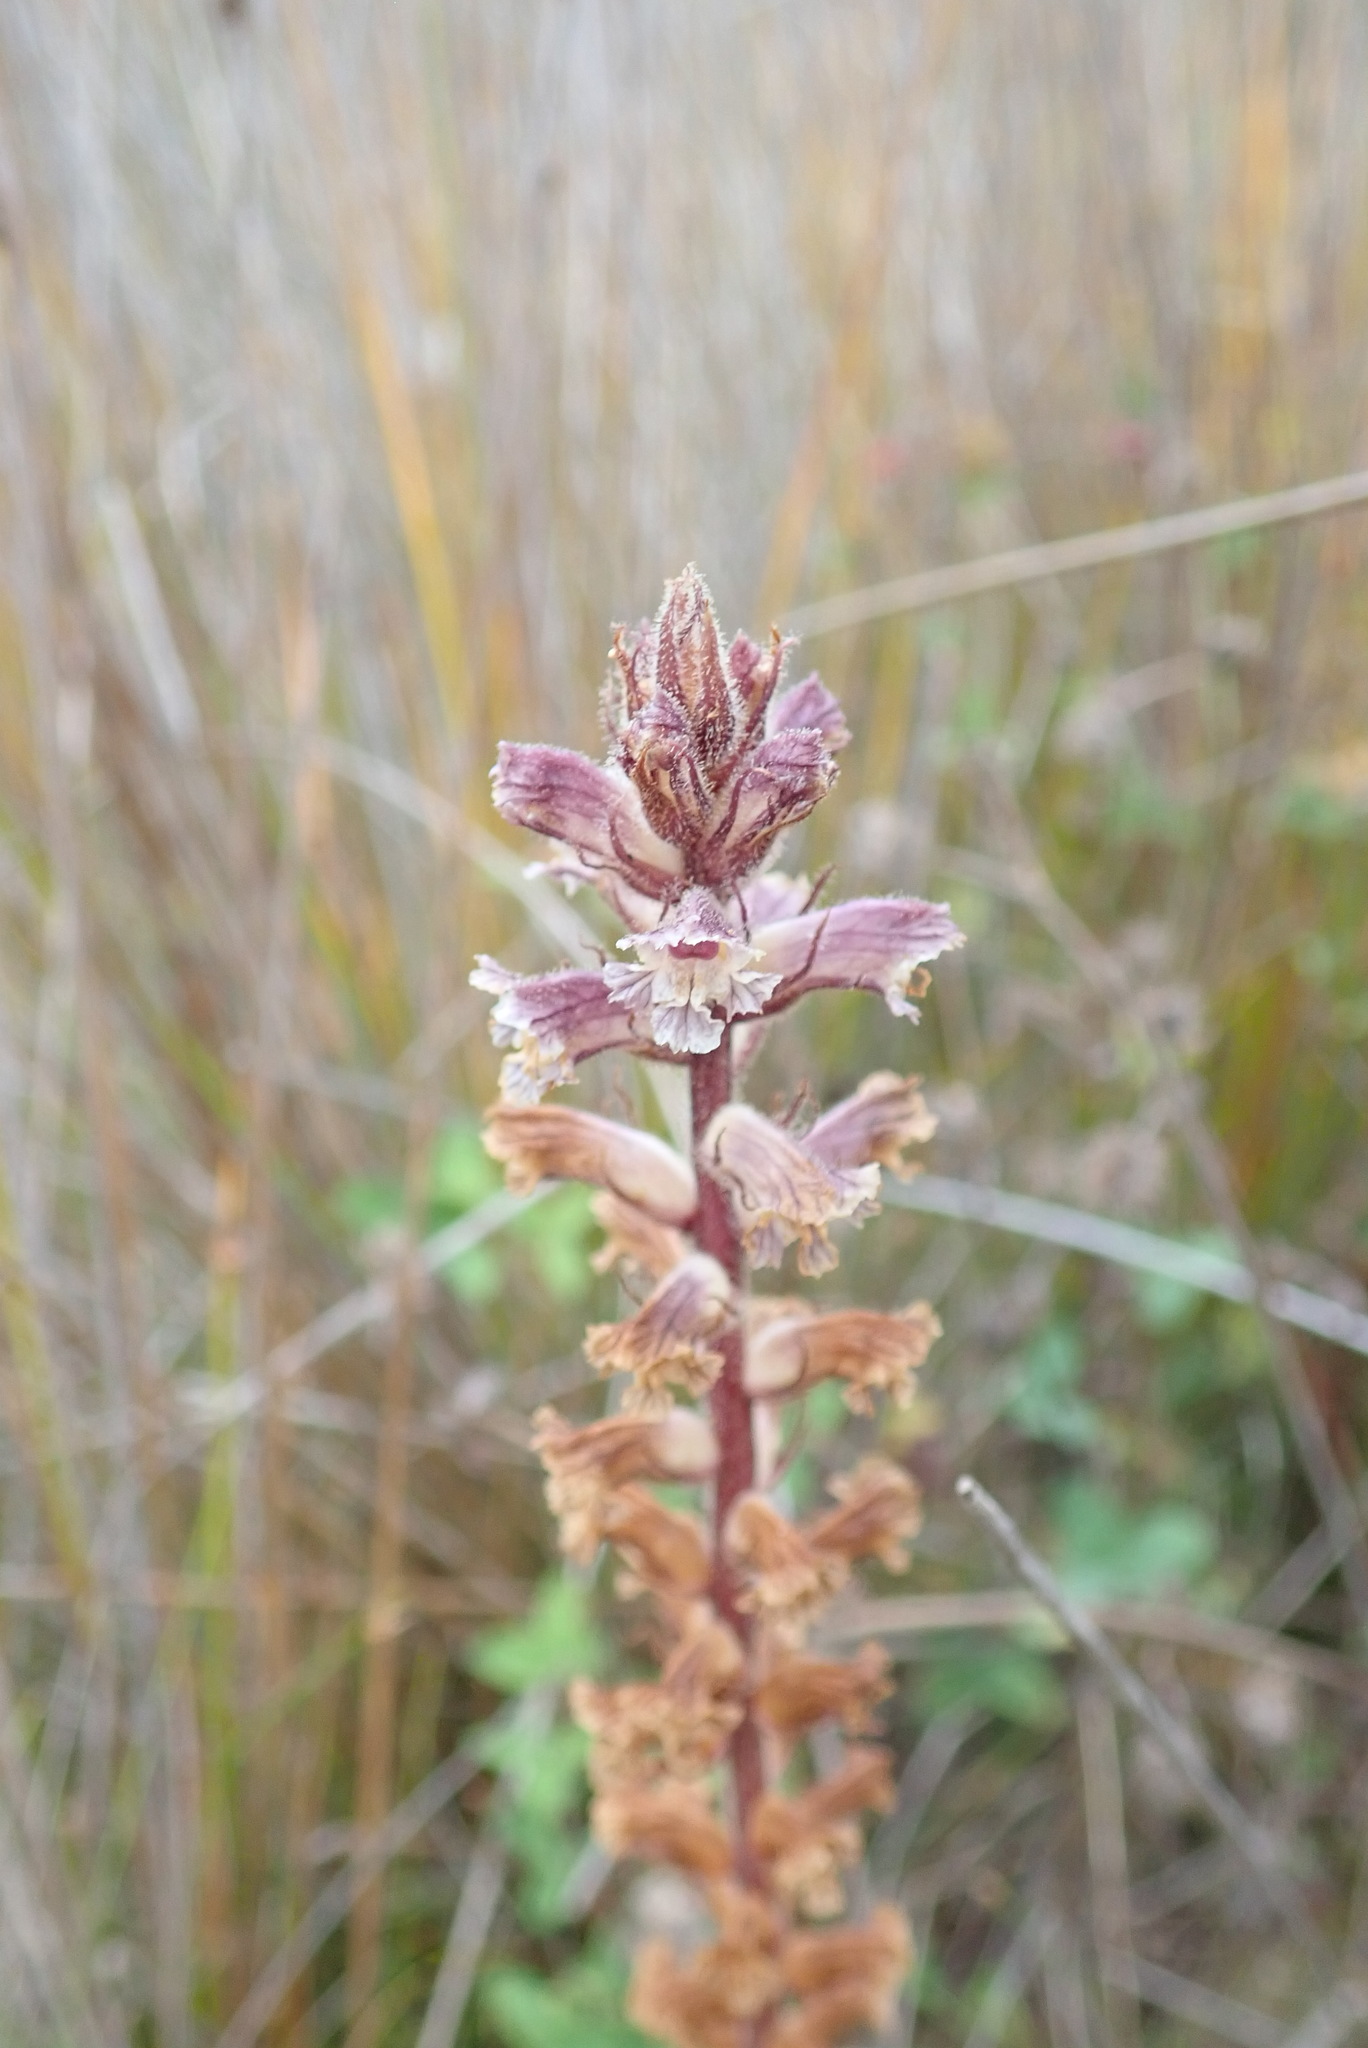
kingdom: Plantae
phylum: Tracheophyta
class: Magnoliopsida
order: Lamiales
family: Orobanchaceae
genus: Orobanche
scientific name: Orobanche minor
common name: Common broomrape
